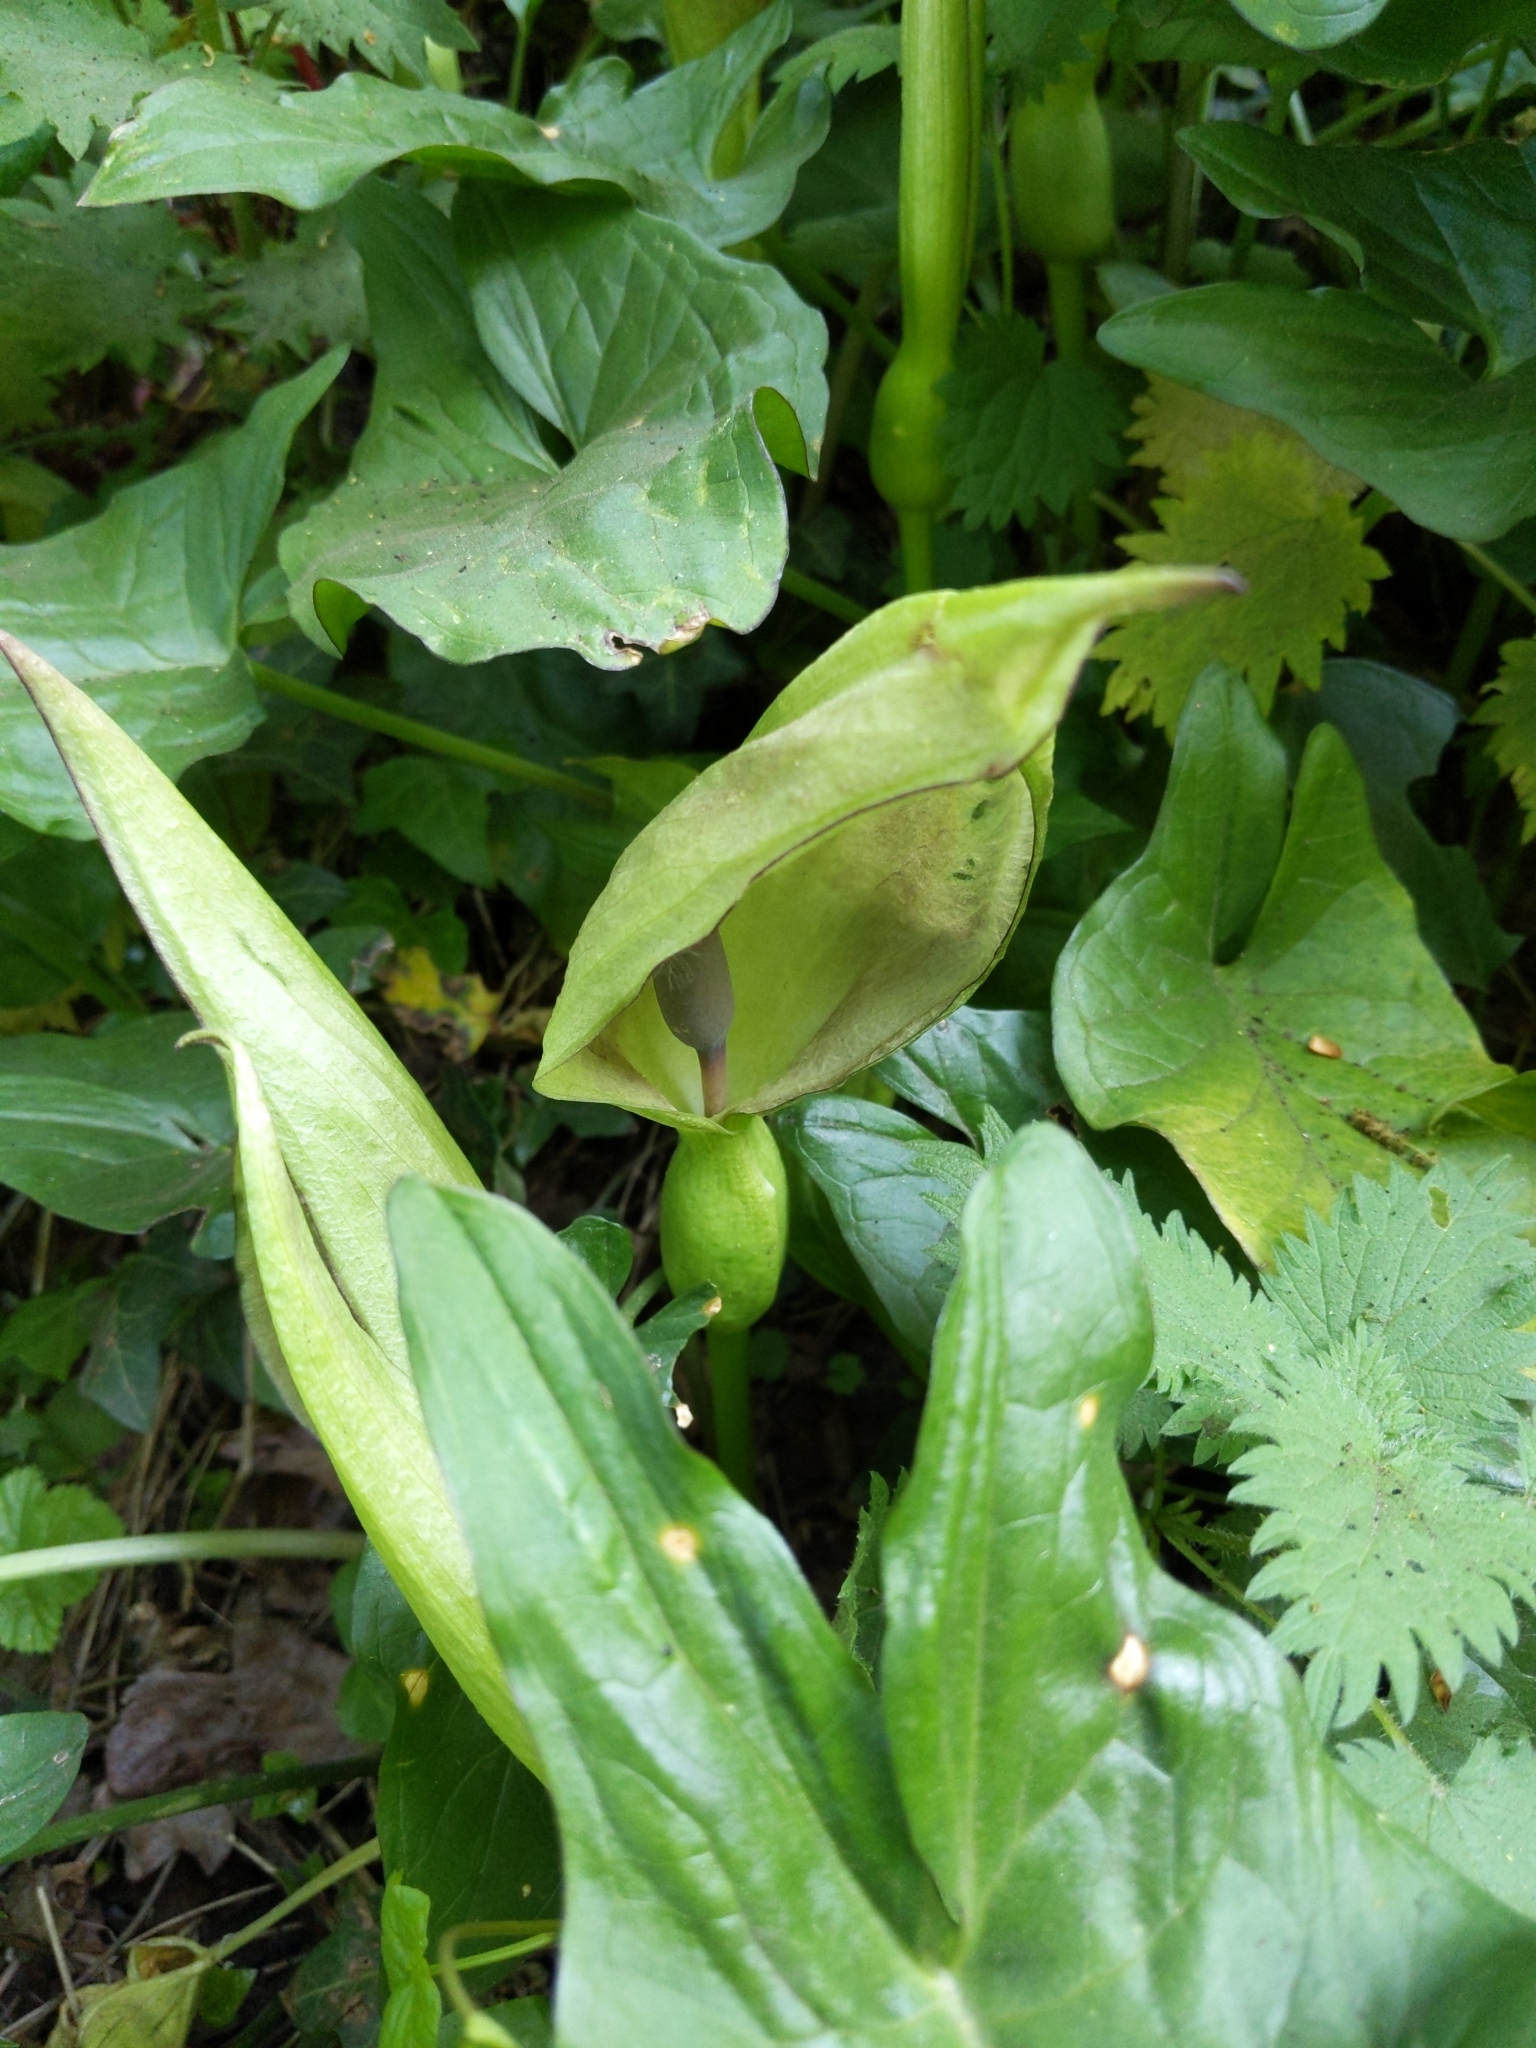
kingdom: Plantae
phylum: Tracheophyta
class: Liliopsida
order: Alismatales
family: Araceae
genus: Arum
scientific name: Arum maculatum
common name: Lords-and-ladies
